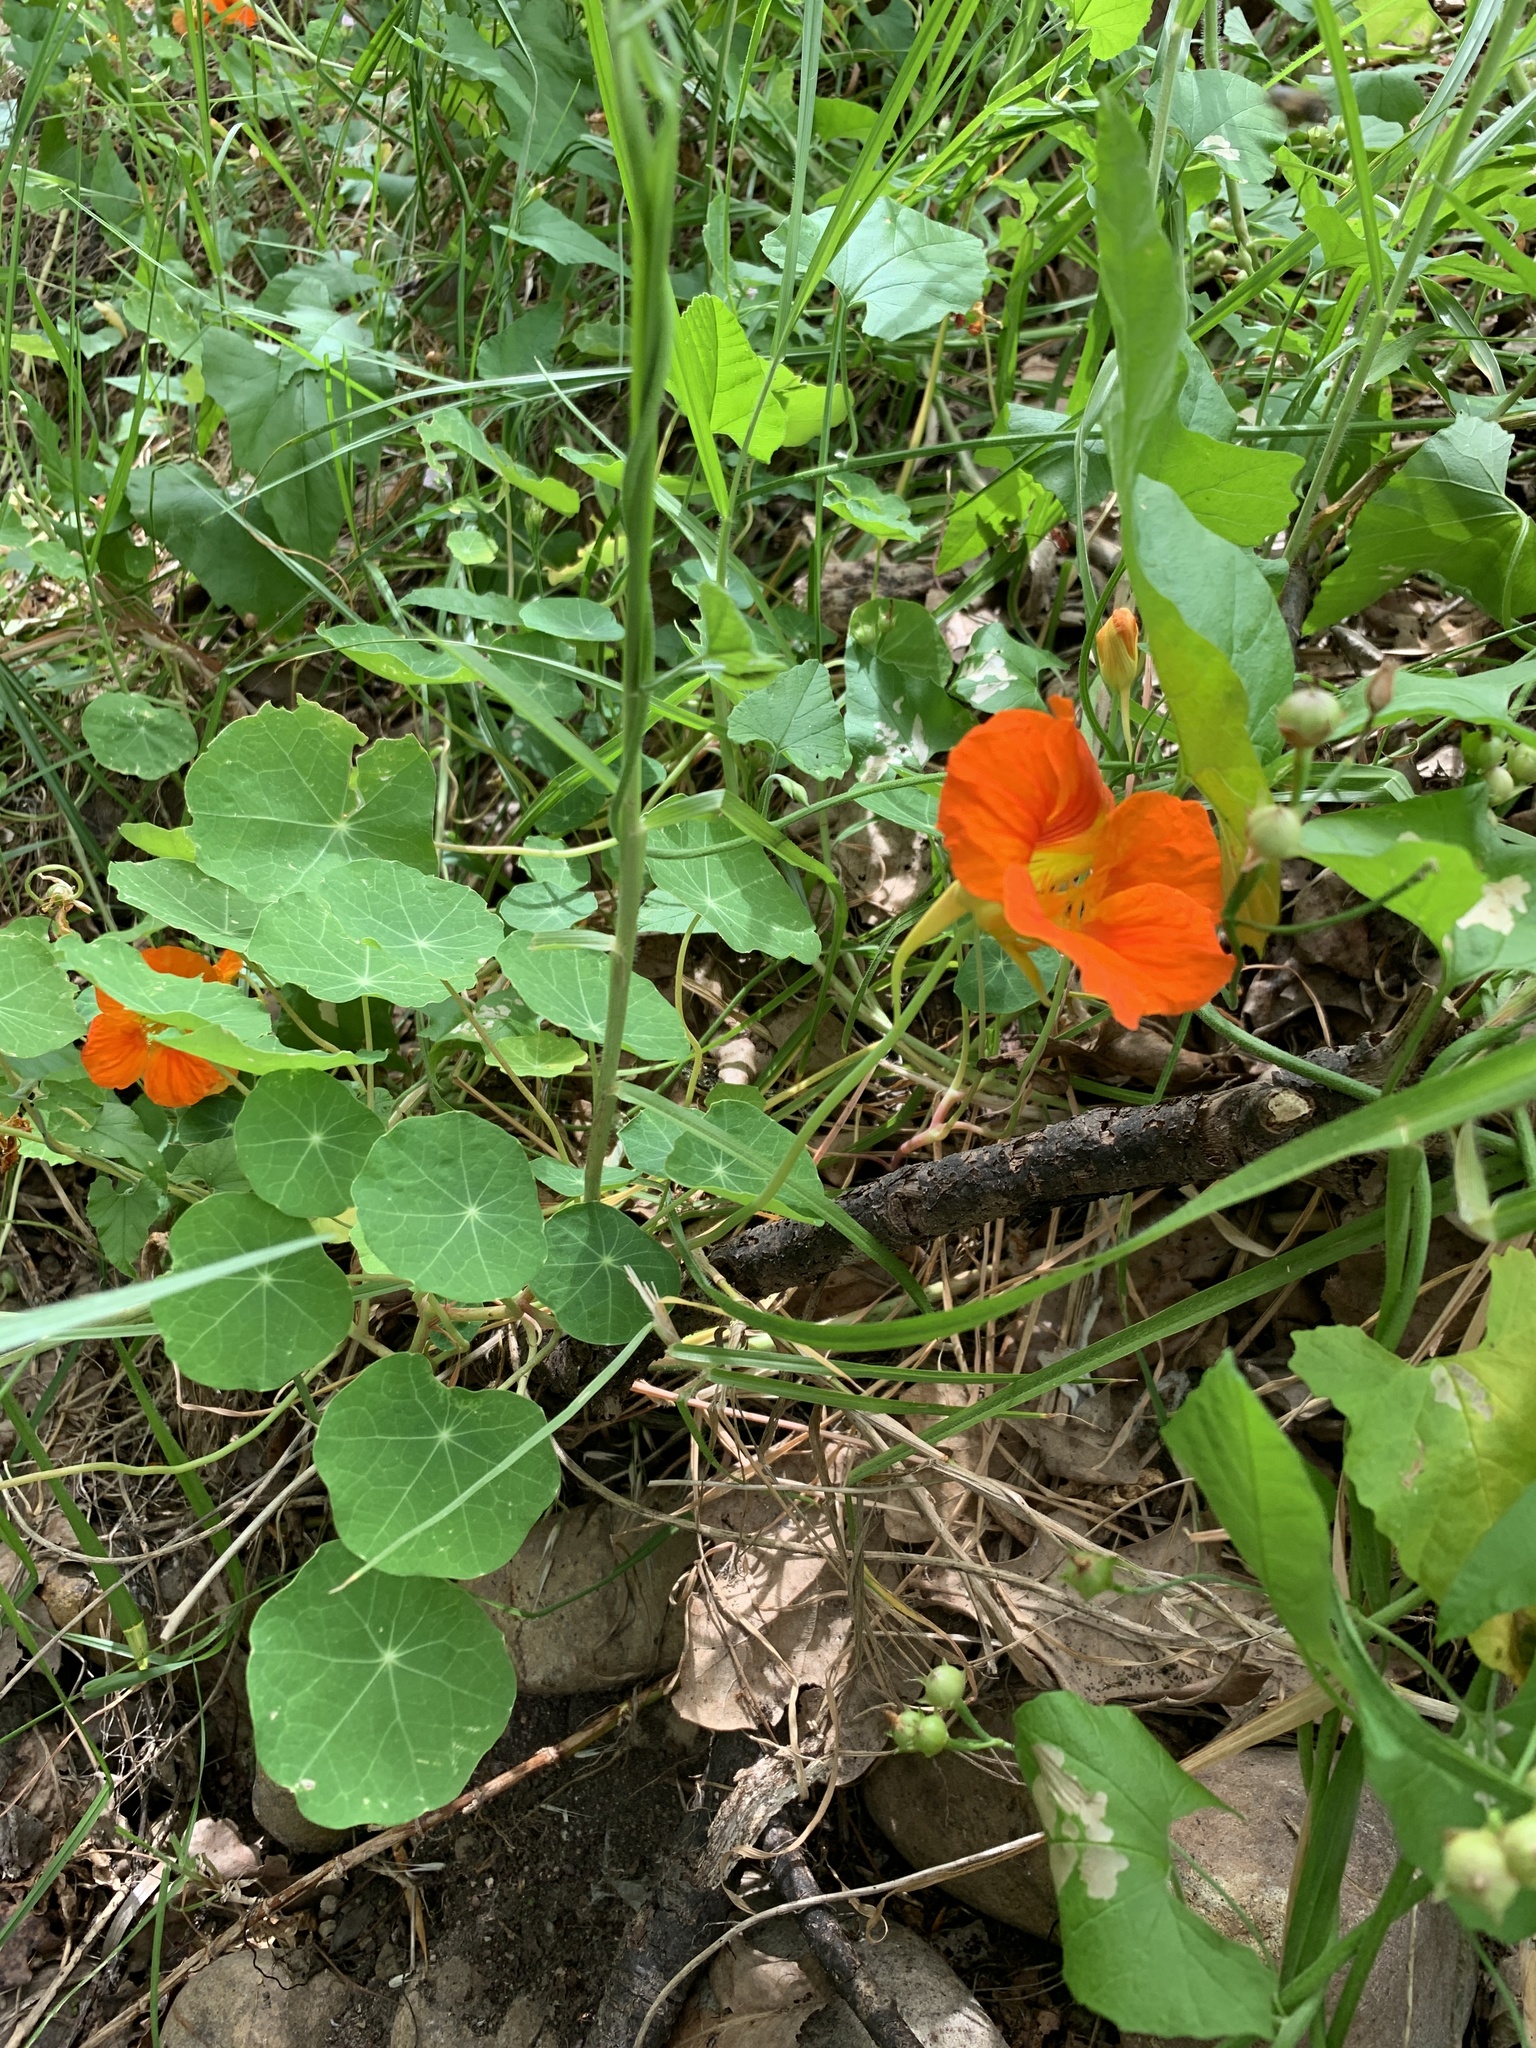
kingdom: Plantae
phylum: Tracheophyta
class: Magnoliopsida
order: Brassicales
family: Tropaeolaceae
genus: Tropaeolum
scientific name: Tropaeolum majus
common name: Nasturtium
